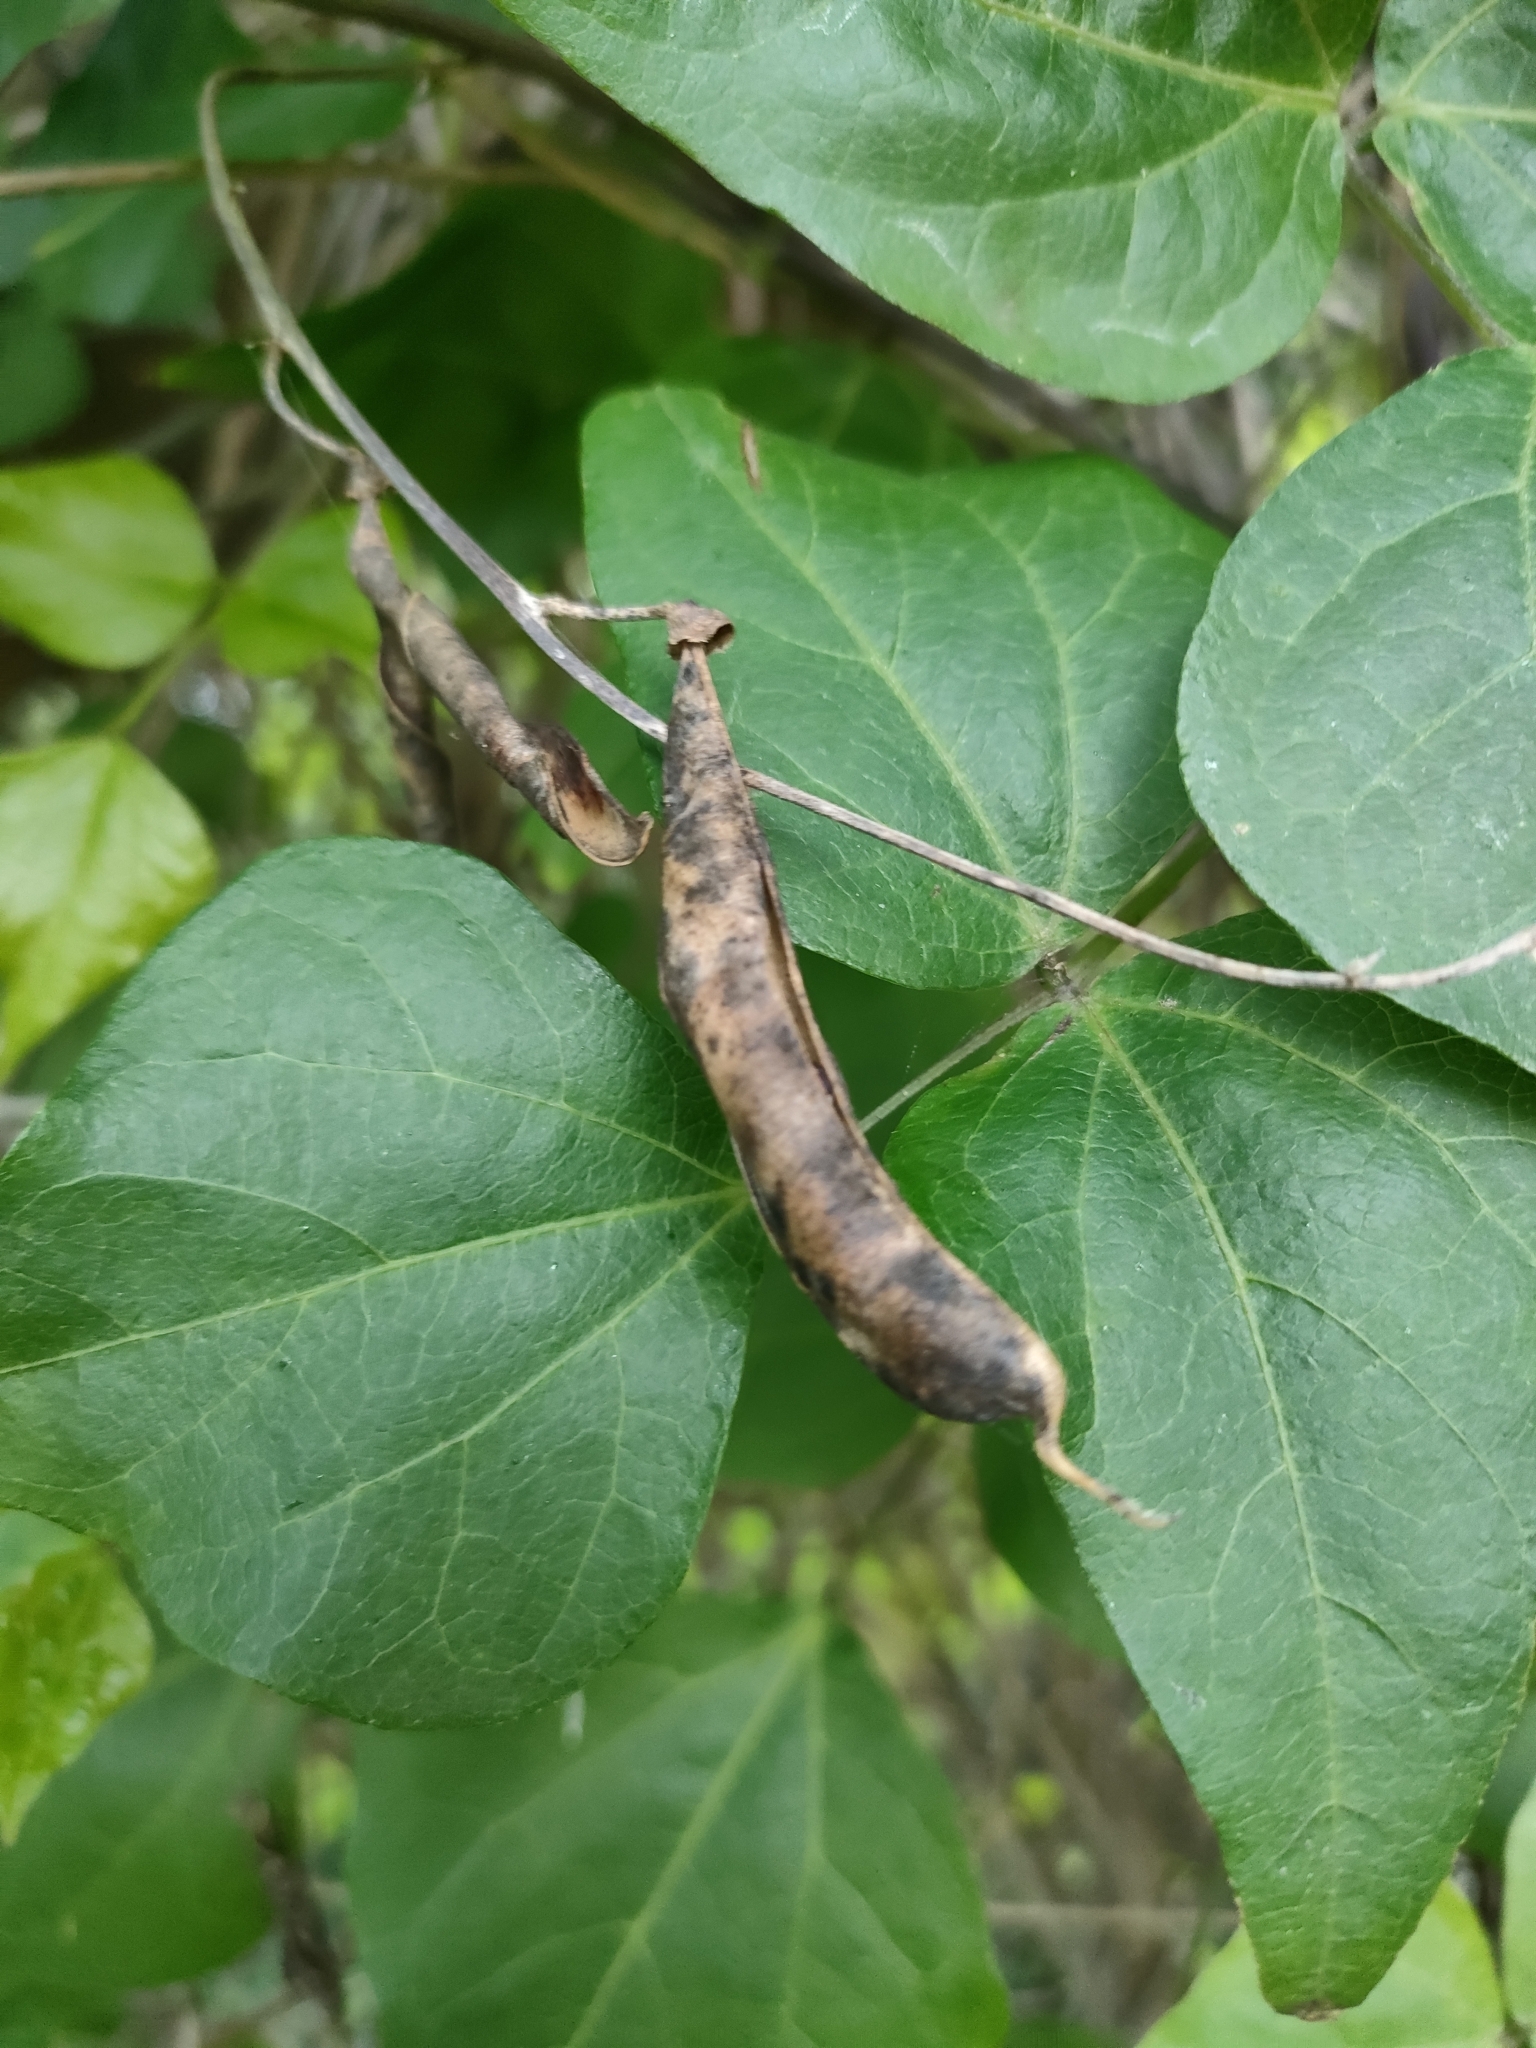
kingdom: Plantae
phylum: Tracheophyta
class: Magnoliopsida
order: Fabales
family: Fabaceae
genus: Dipogon
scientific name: Dipogon lignosus
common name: Okie bean
